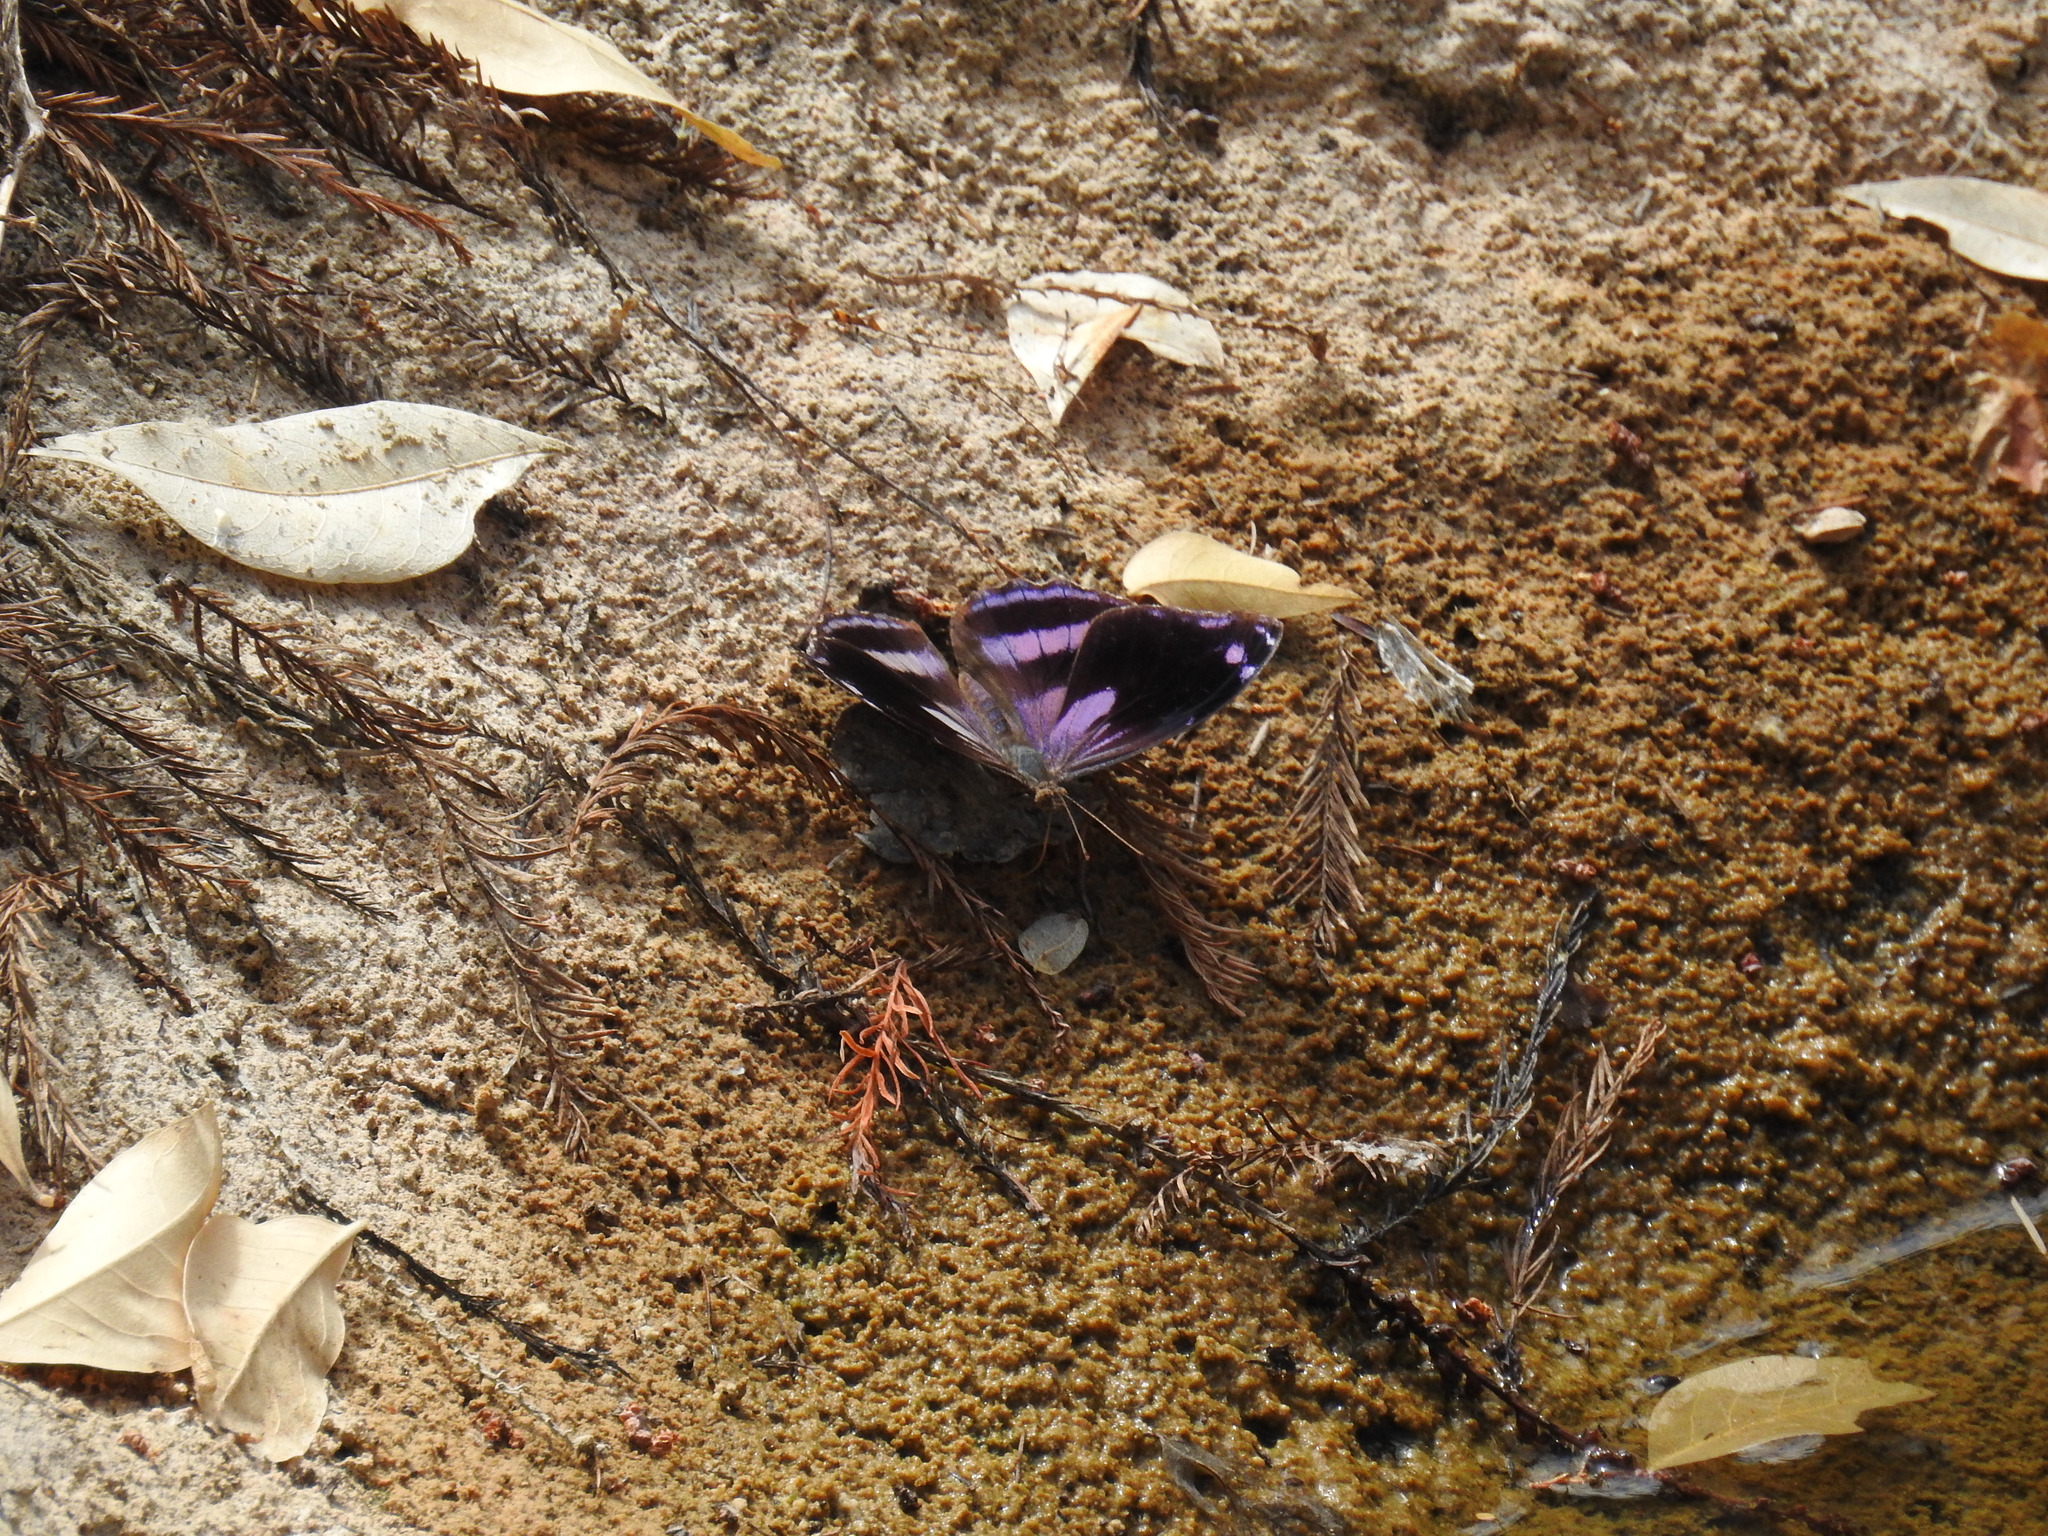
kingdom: Animalia
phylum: Arthropoda
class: Insecta
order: Lepidoptera
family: Nymphalidae
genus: Myscelia
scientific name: Myscelia cyananthe
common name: Blackened bluewing
